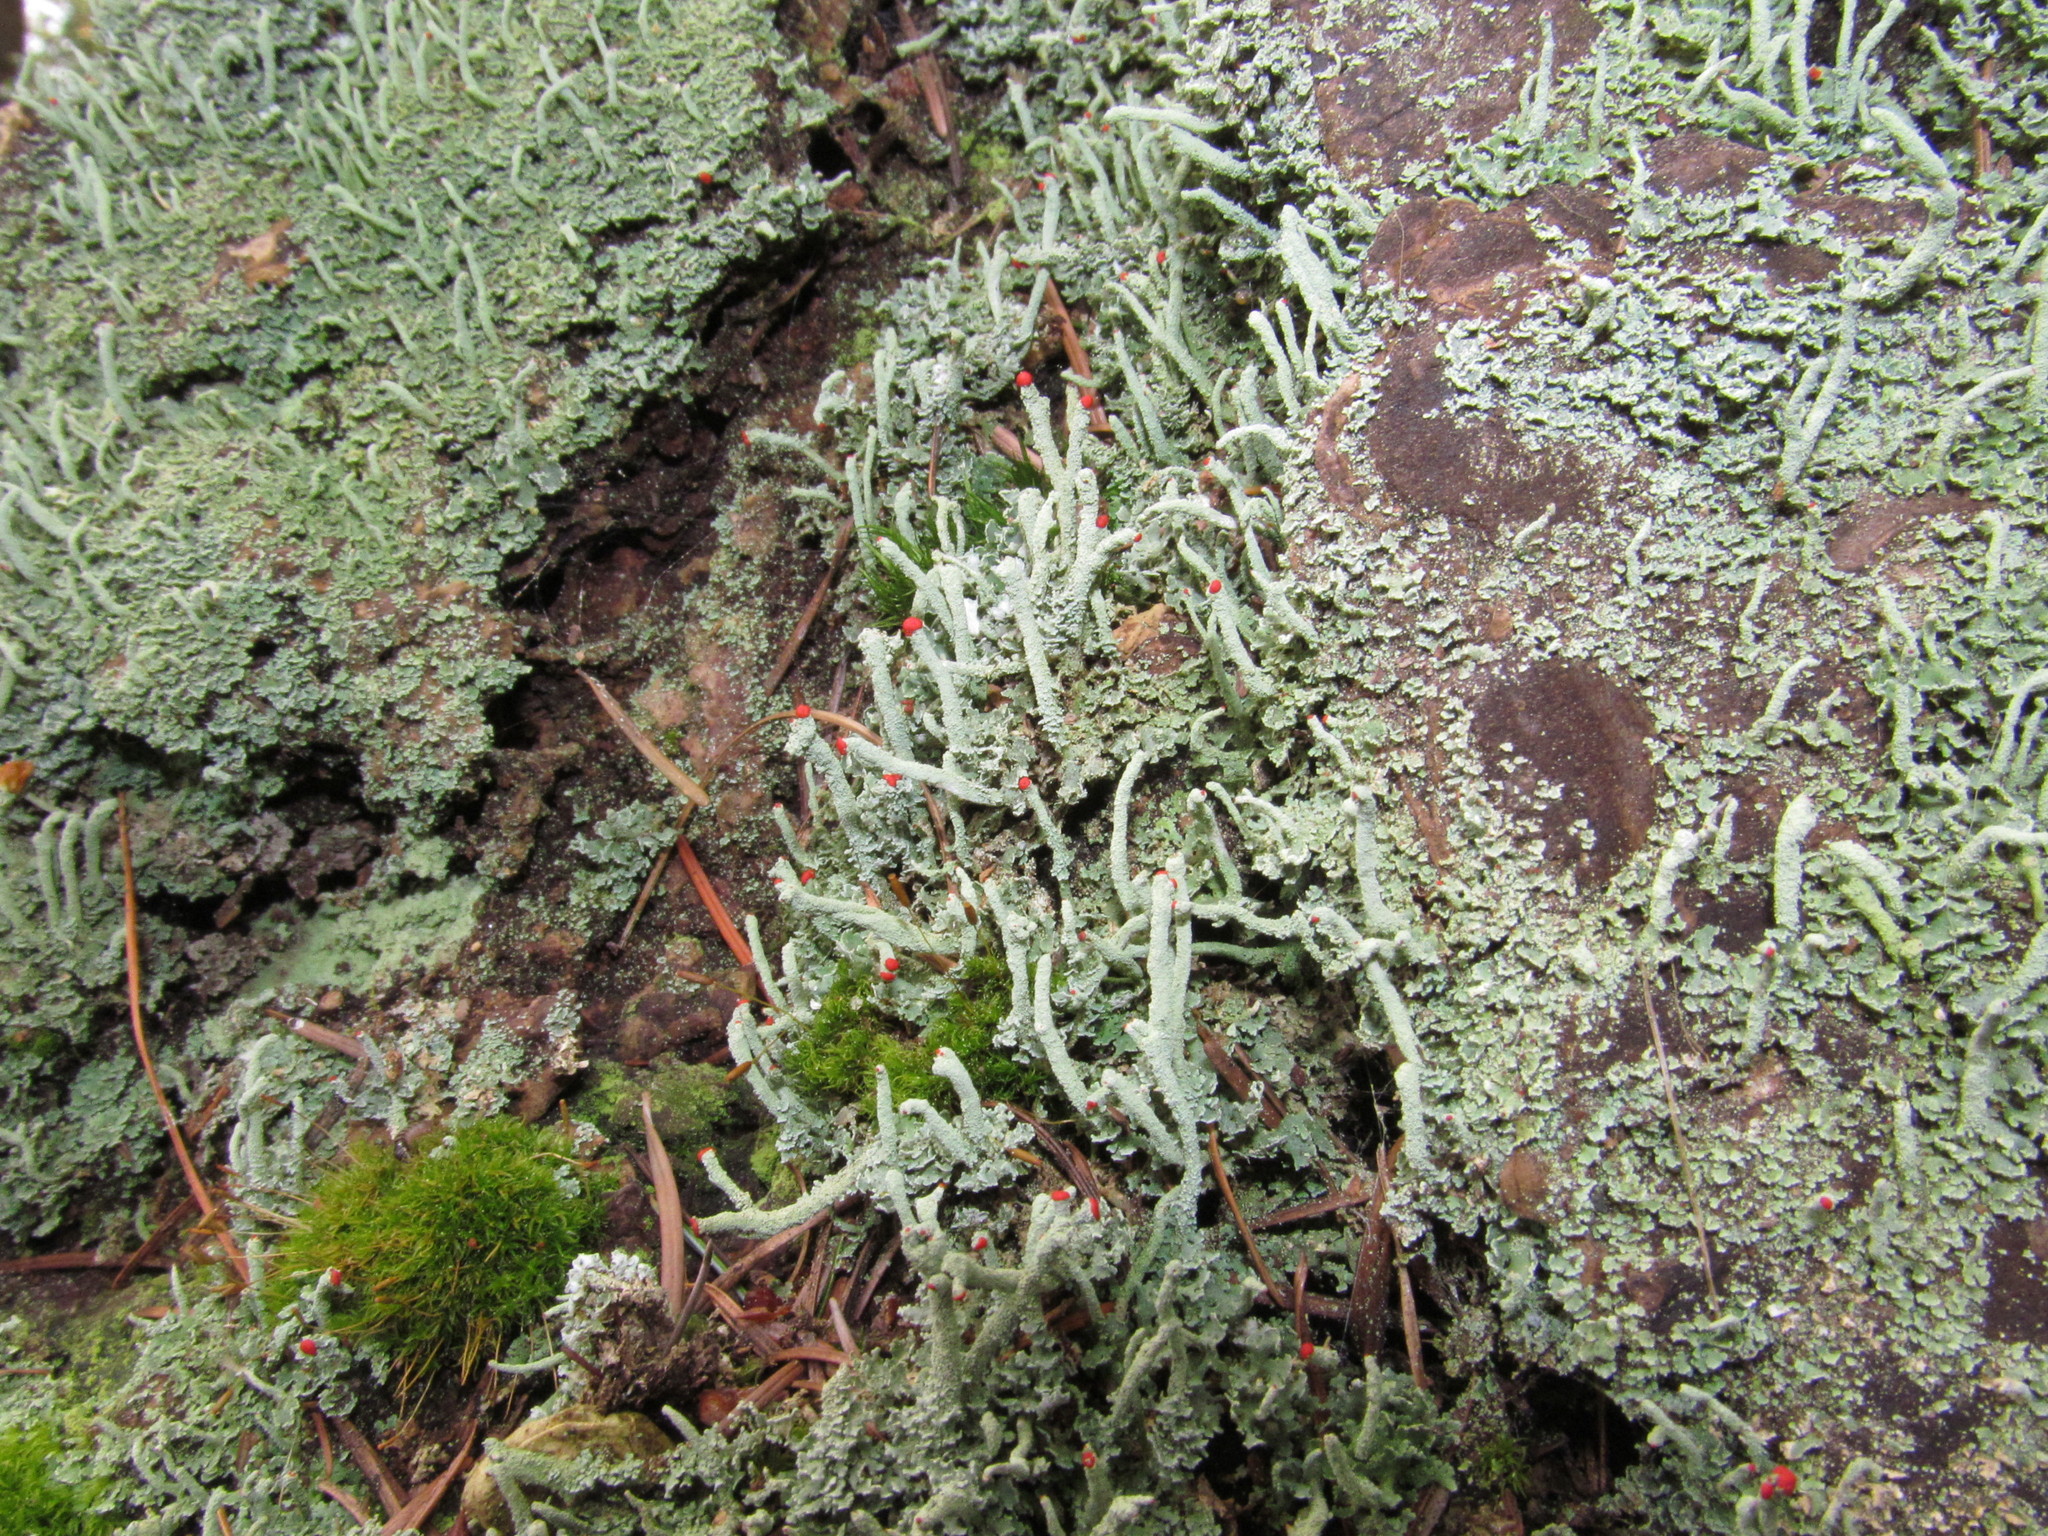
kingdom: Fungi
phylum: Ascomycota
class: Lecanoromycetes
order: Lecanorales
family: Cladoniaceae
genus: Cladonia
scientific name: Cladonia macilenta
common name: Lipstick powderhorn
